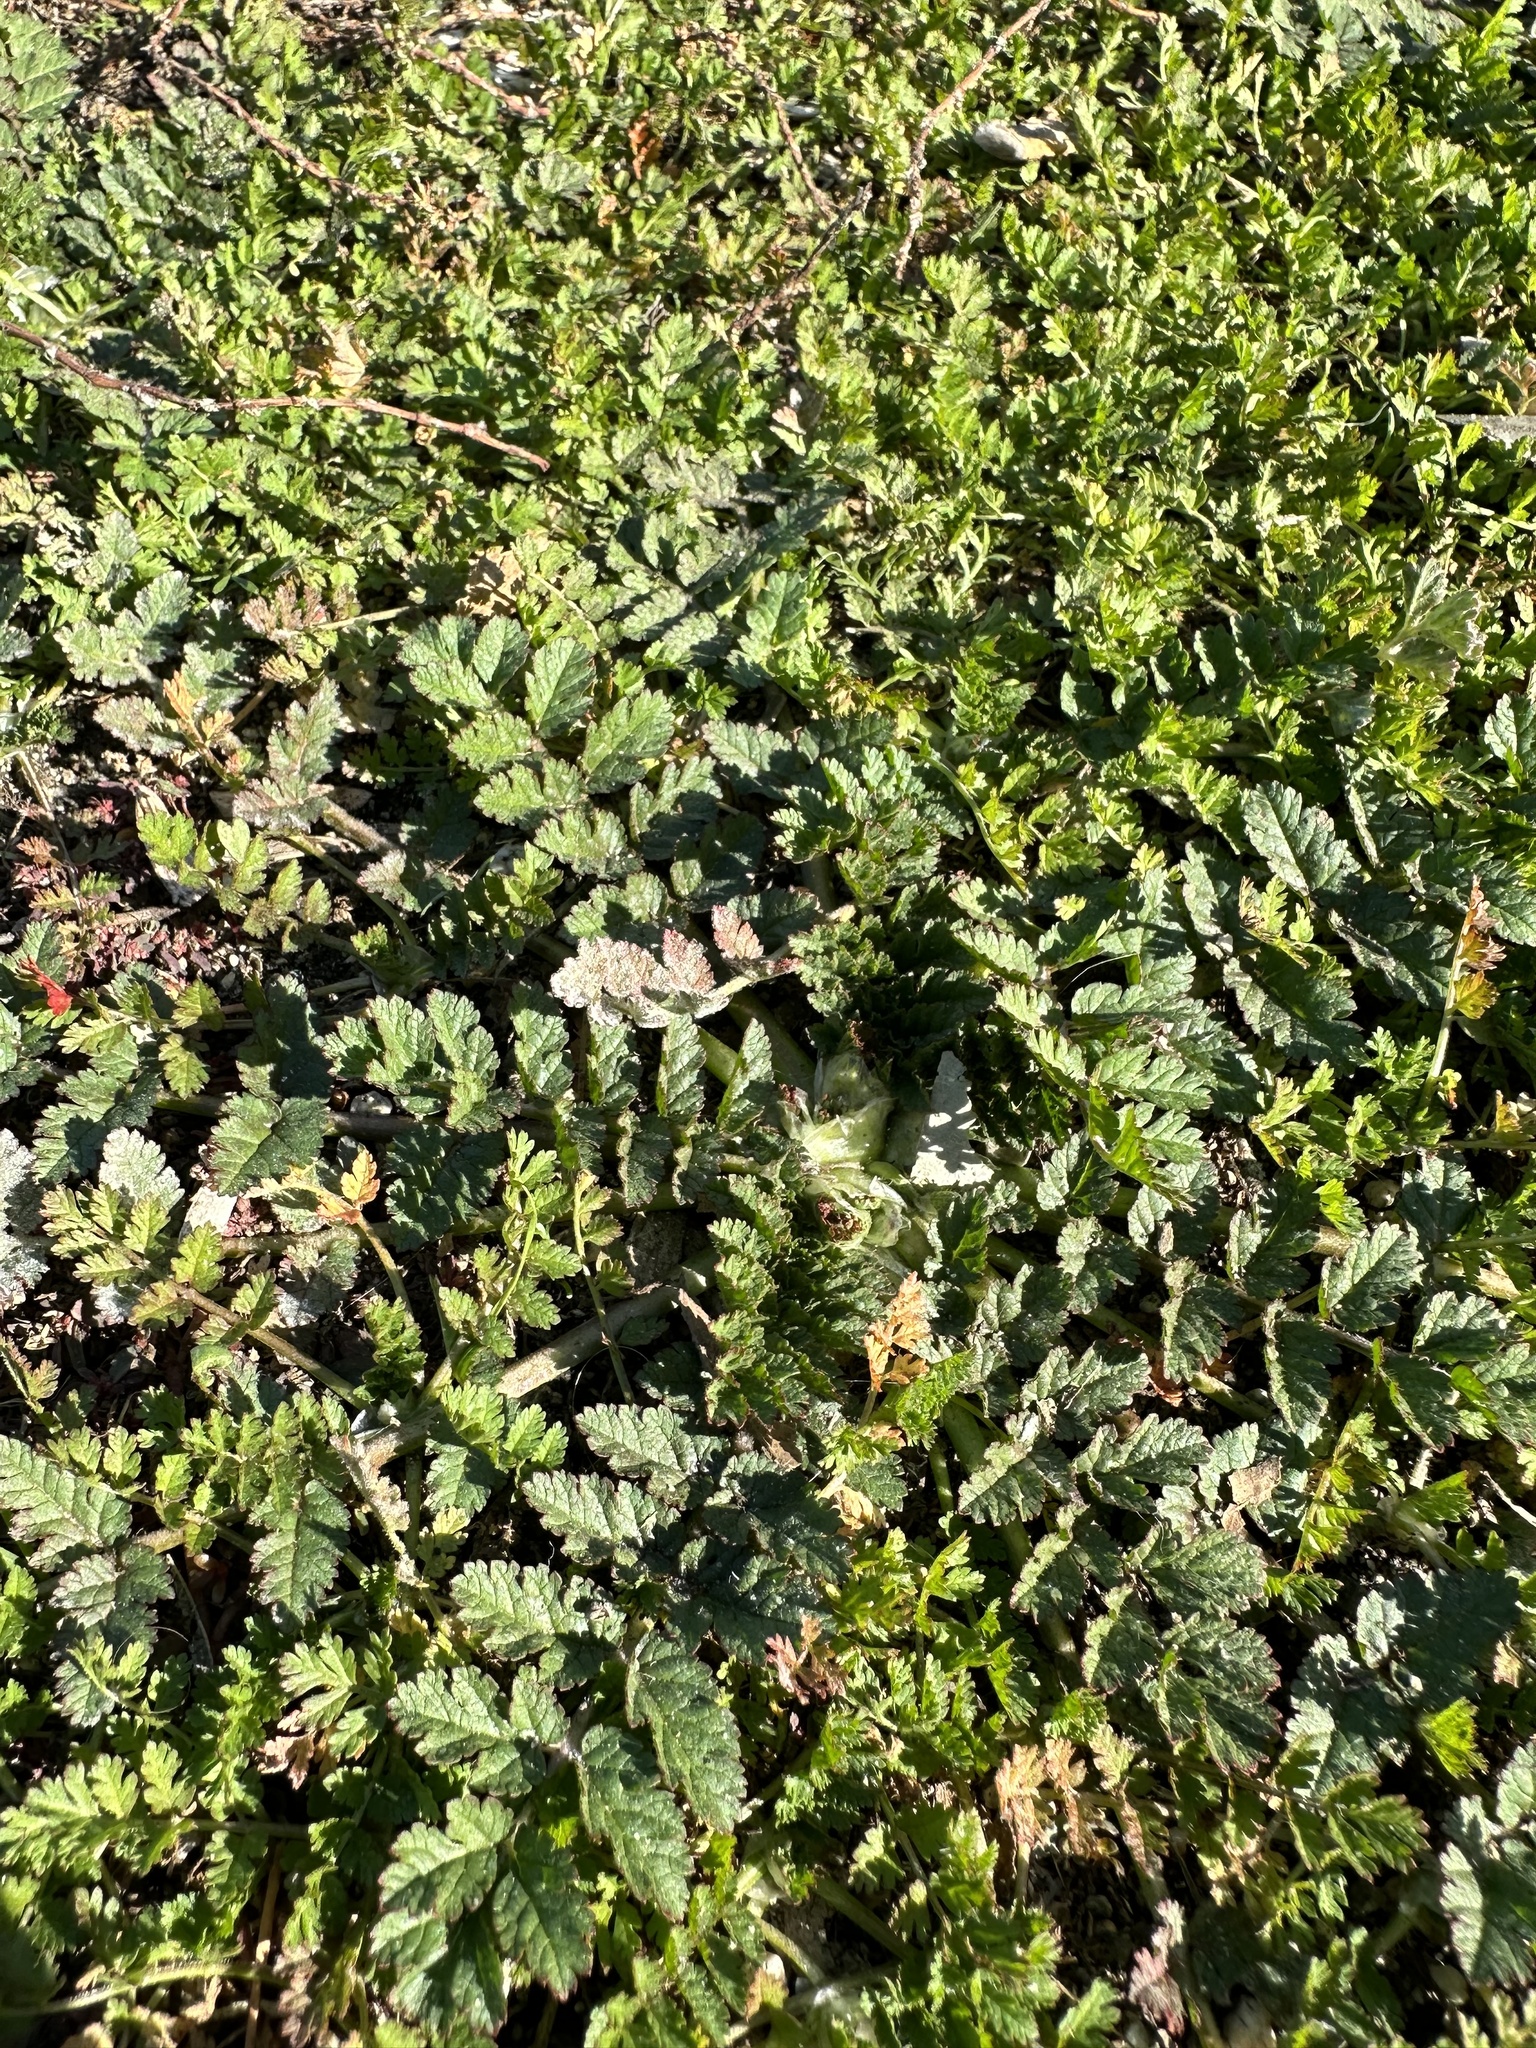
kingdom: Plantae
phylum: Tracheophyta
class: Magnoliopsida
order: Geraniales
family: Geraniaceae
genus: Erodium
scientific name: Erodium moschatum
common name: Musk stork's-bill
